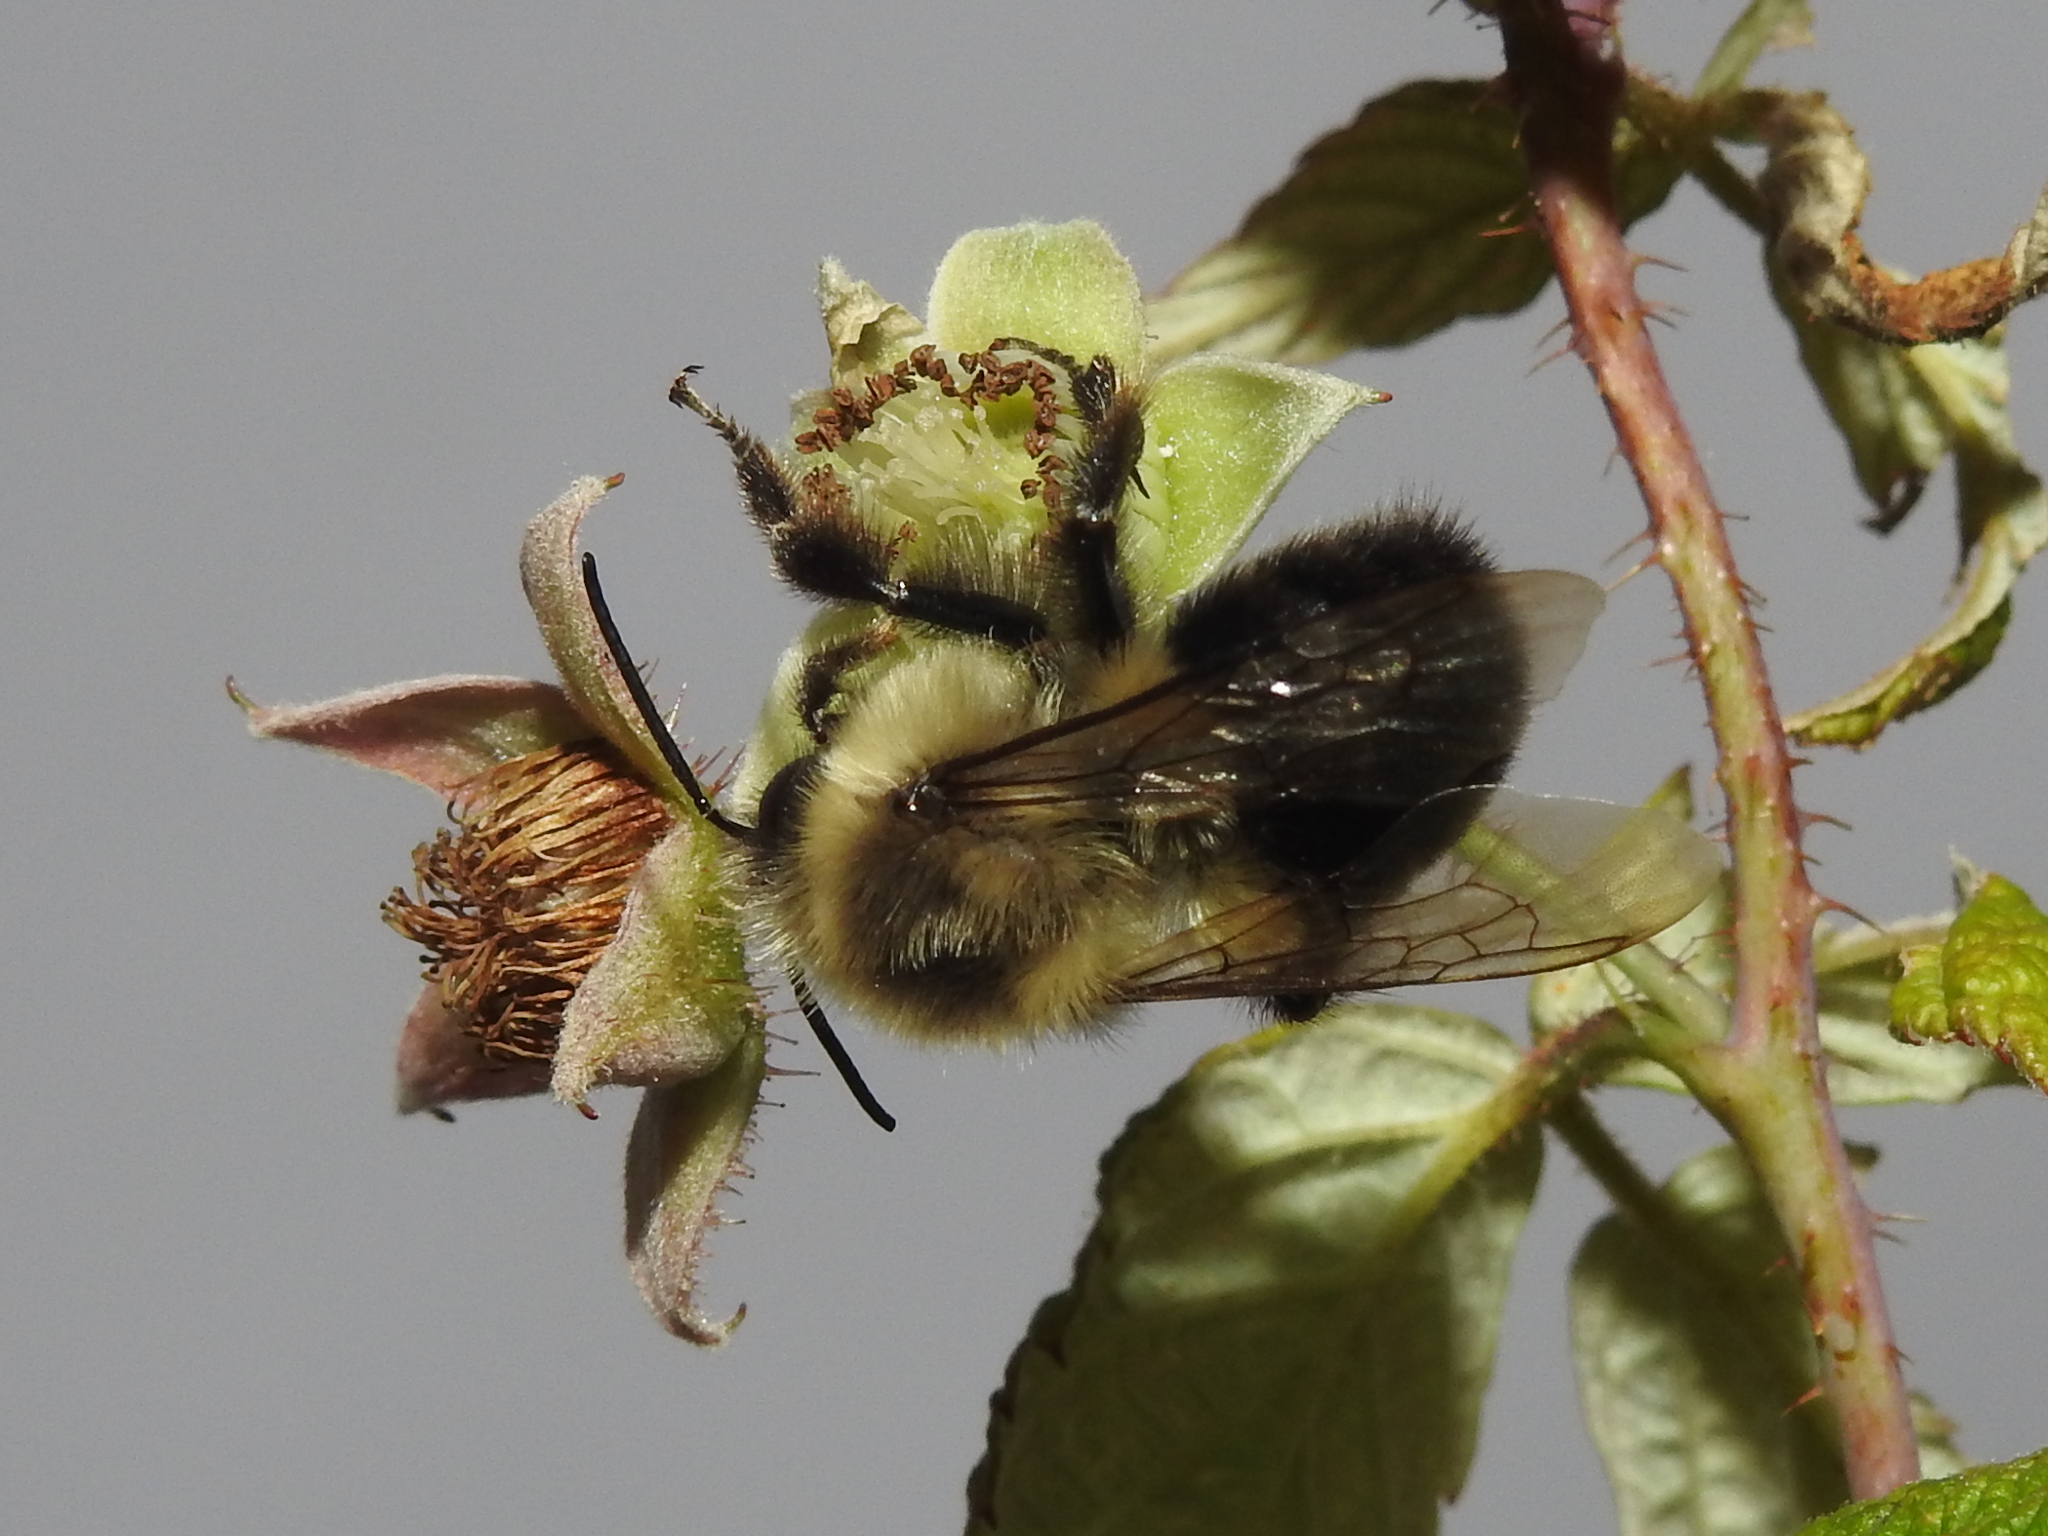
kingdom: Animalia
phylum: Arthropoda
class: Insecta
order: Hymenoptera
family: Apidae
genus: Bombus
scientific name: Bombus impatiens
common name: Common eastern bumble bee
